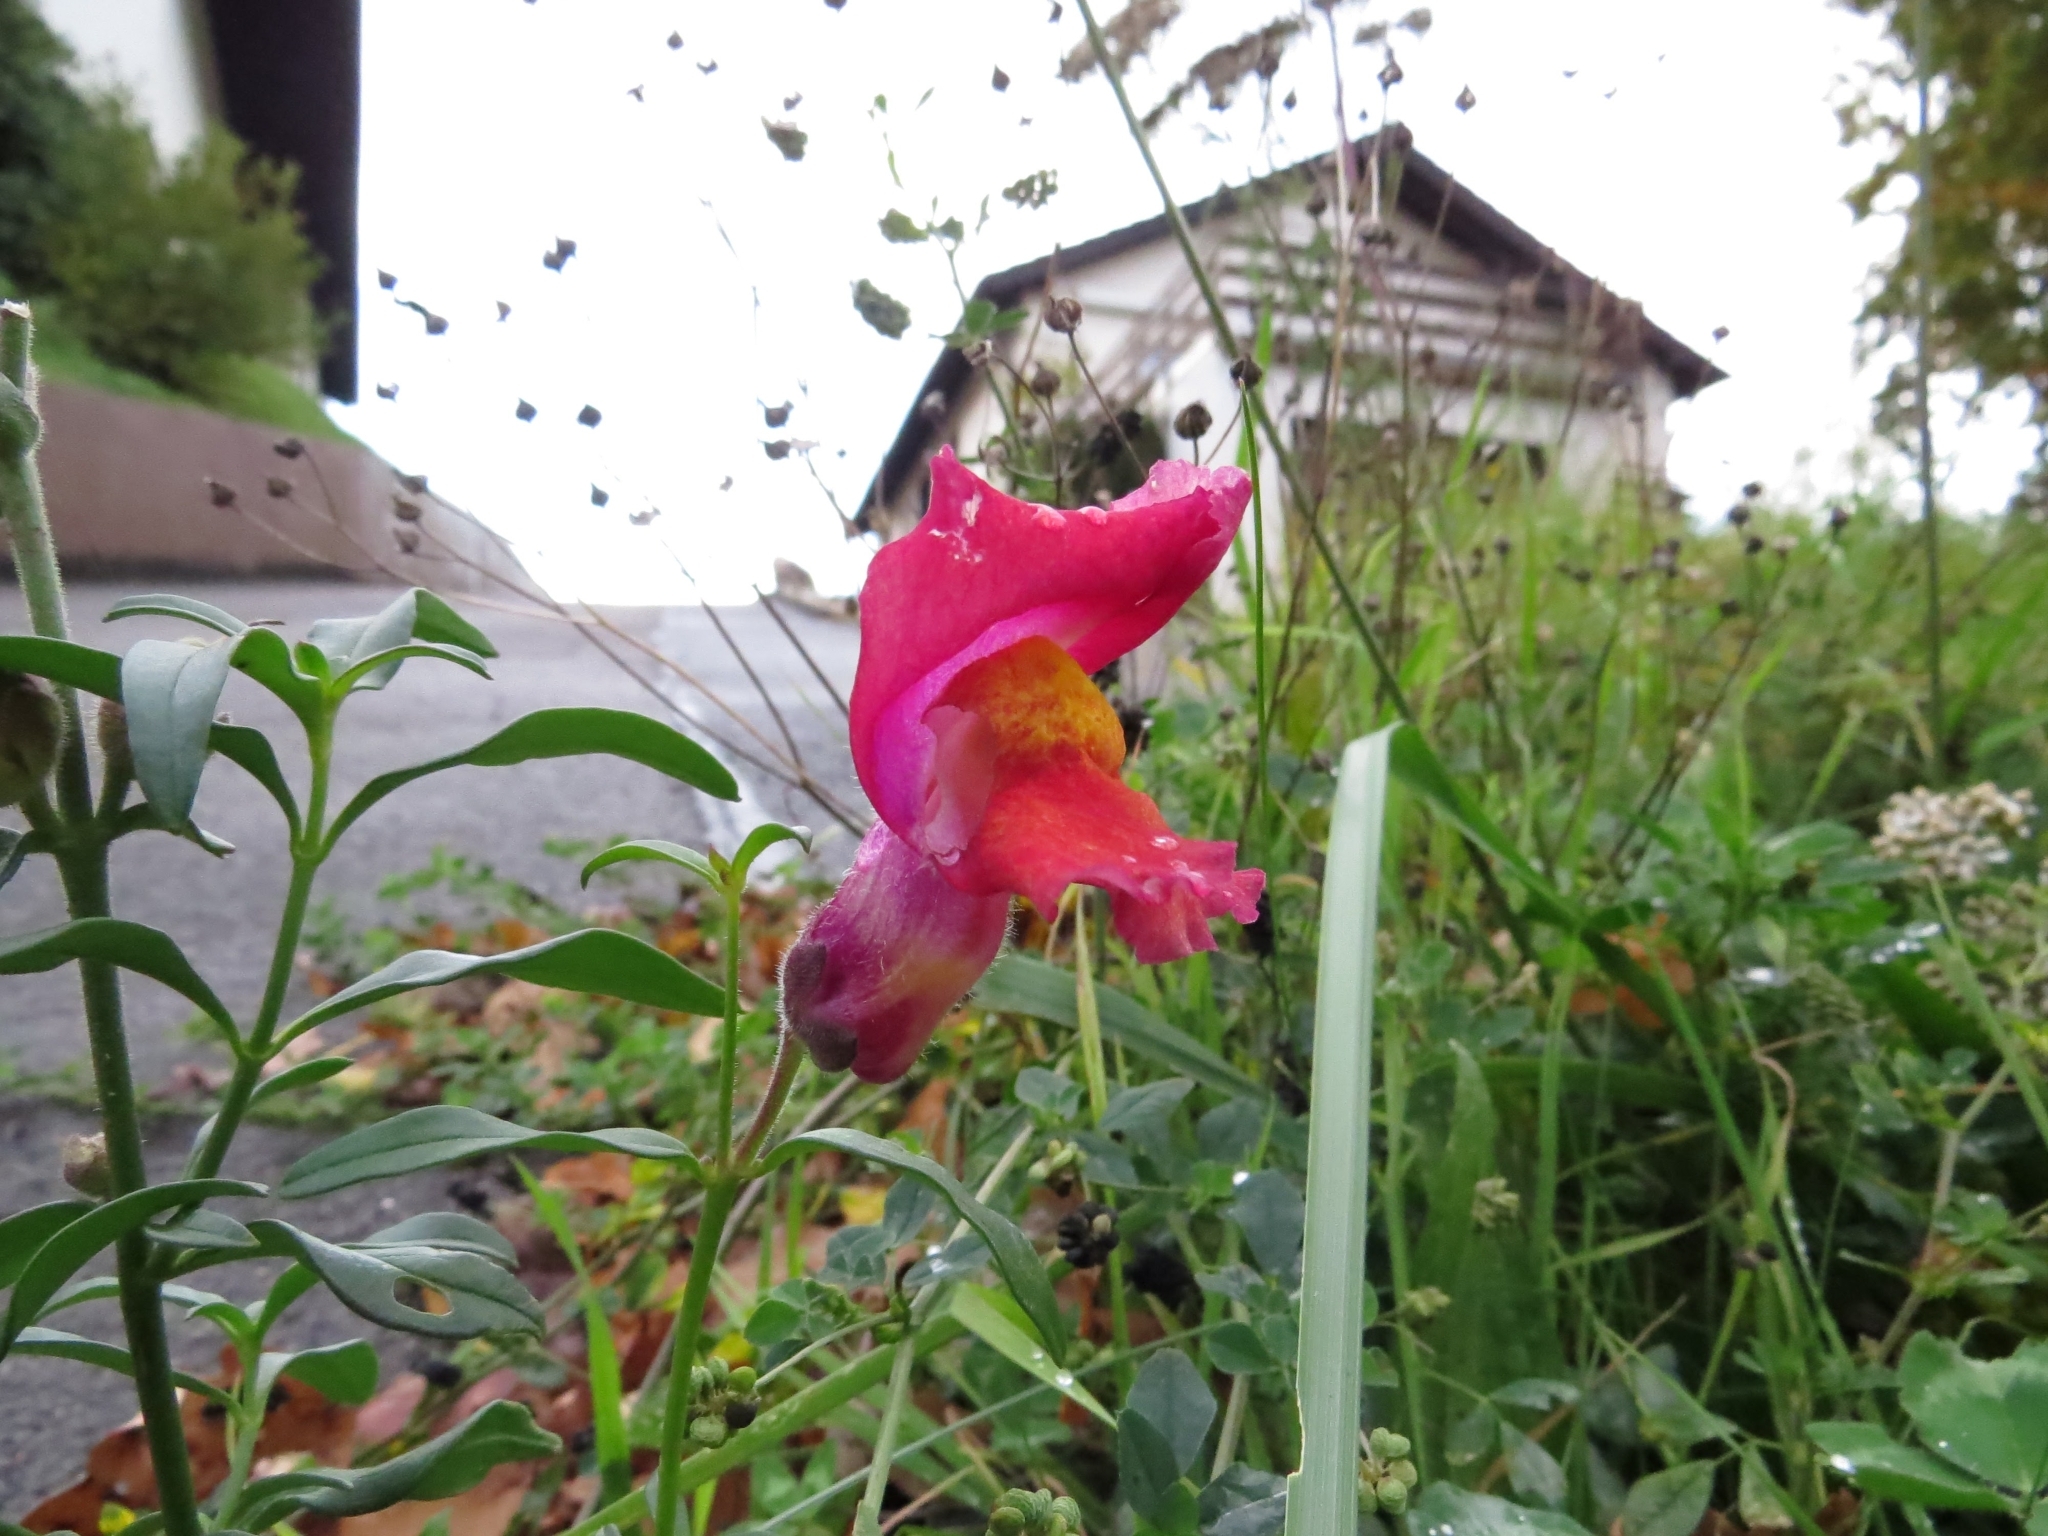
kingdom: Plantae
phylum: Tracheophyta
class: Magnoliopsida
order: Lamiales
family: Plantaginaceae
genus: Antirrhinum
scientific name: Antirrhinum majus
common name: Snapdragon
